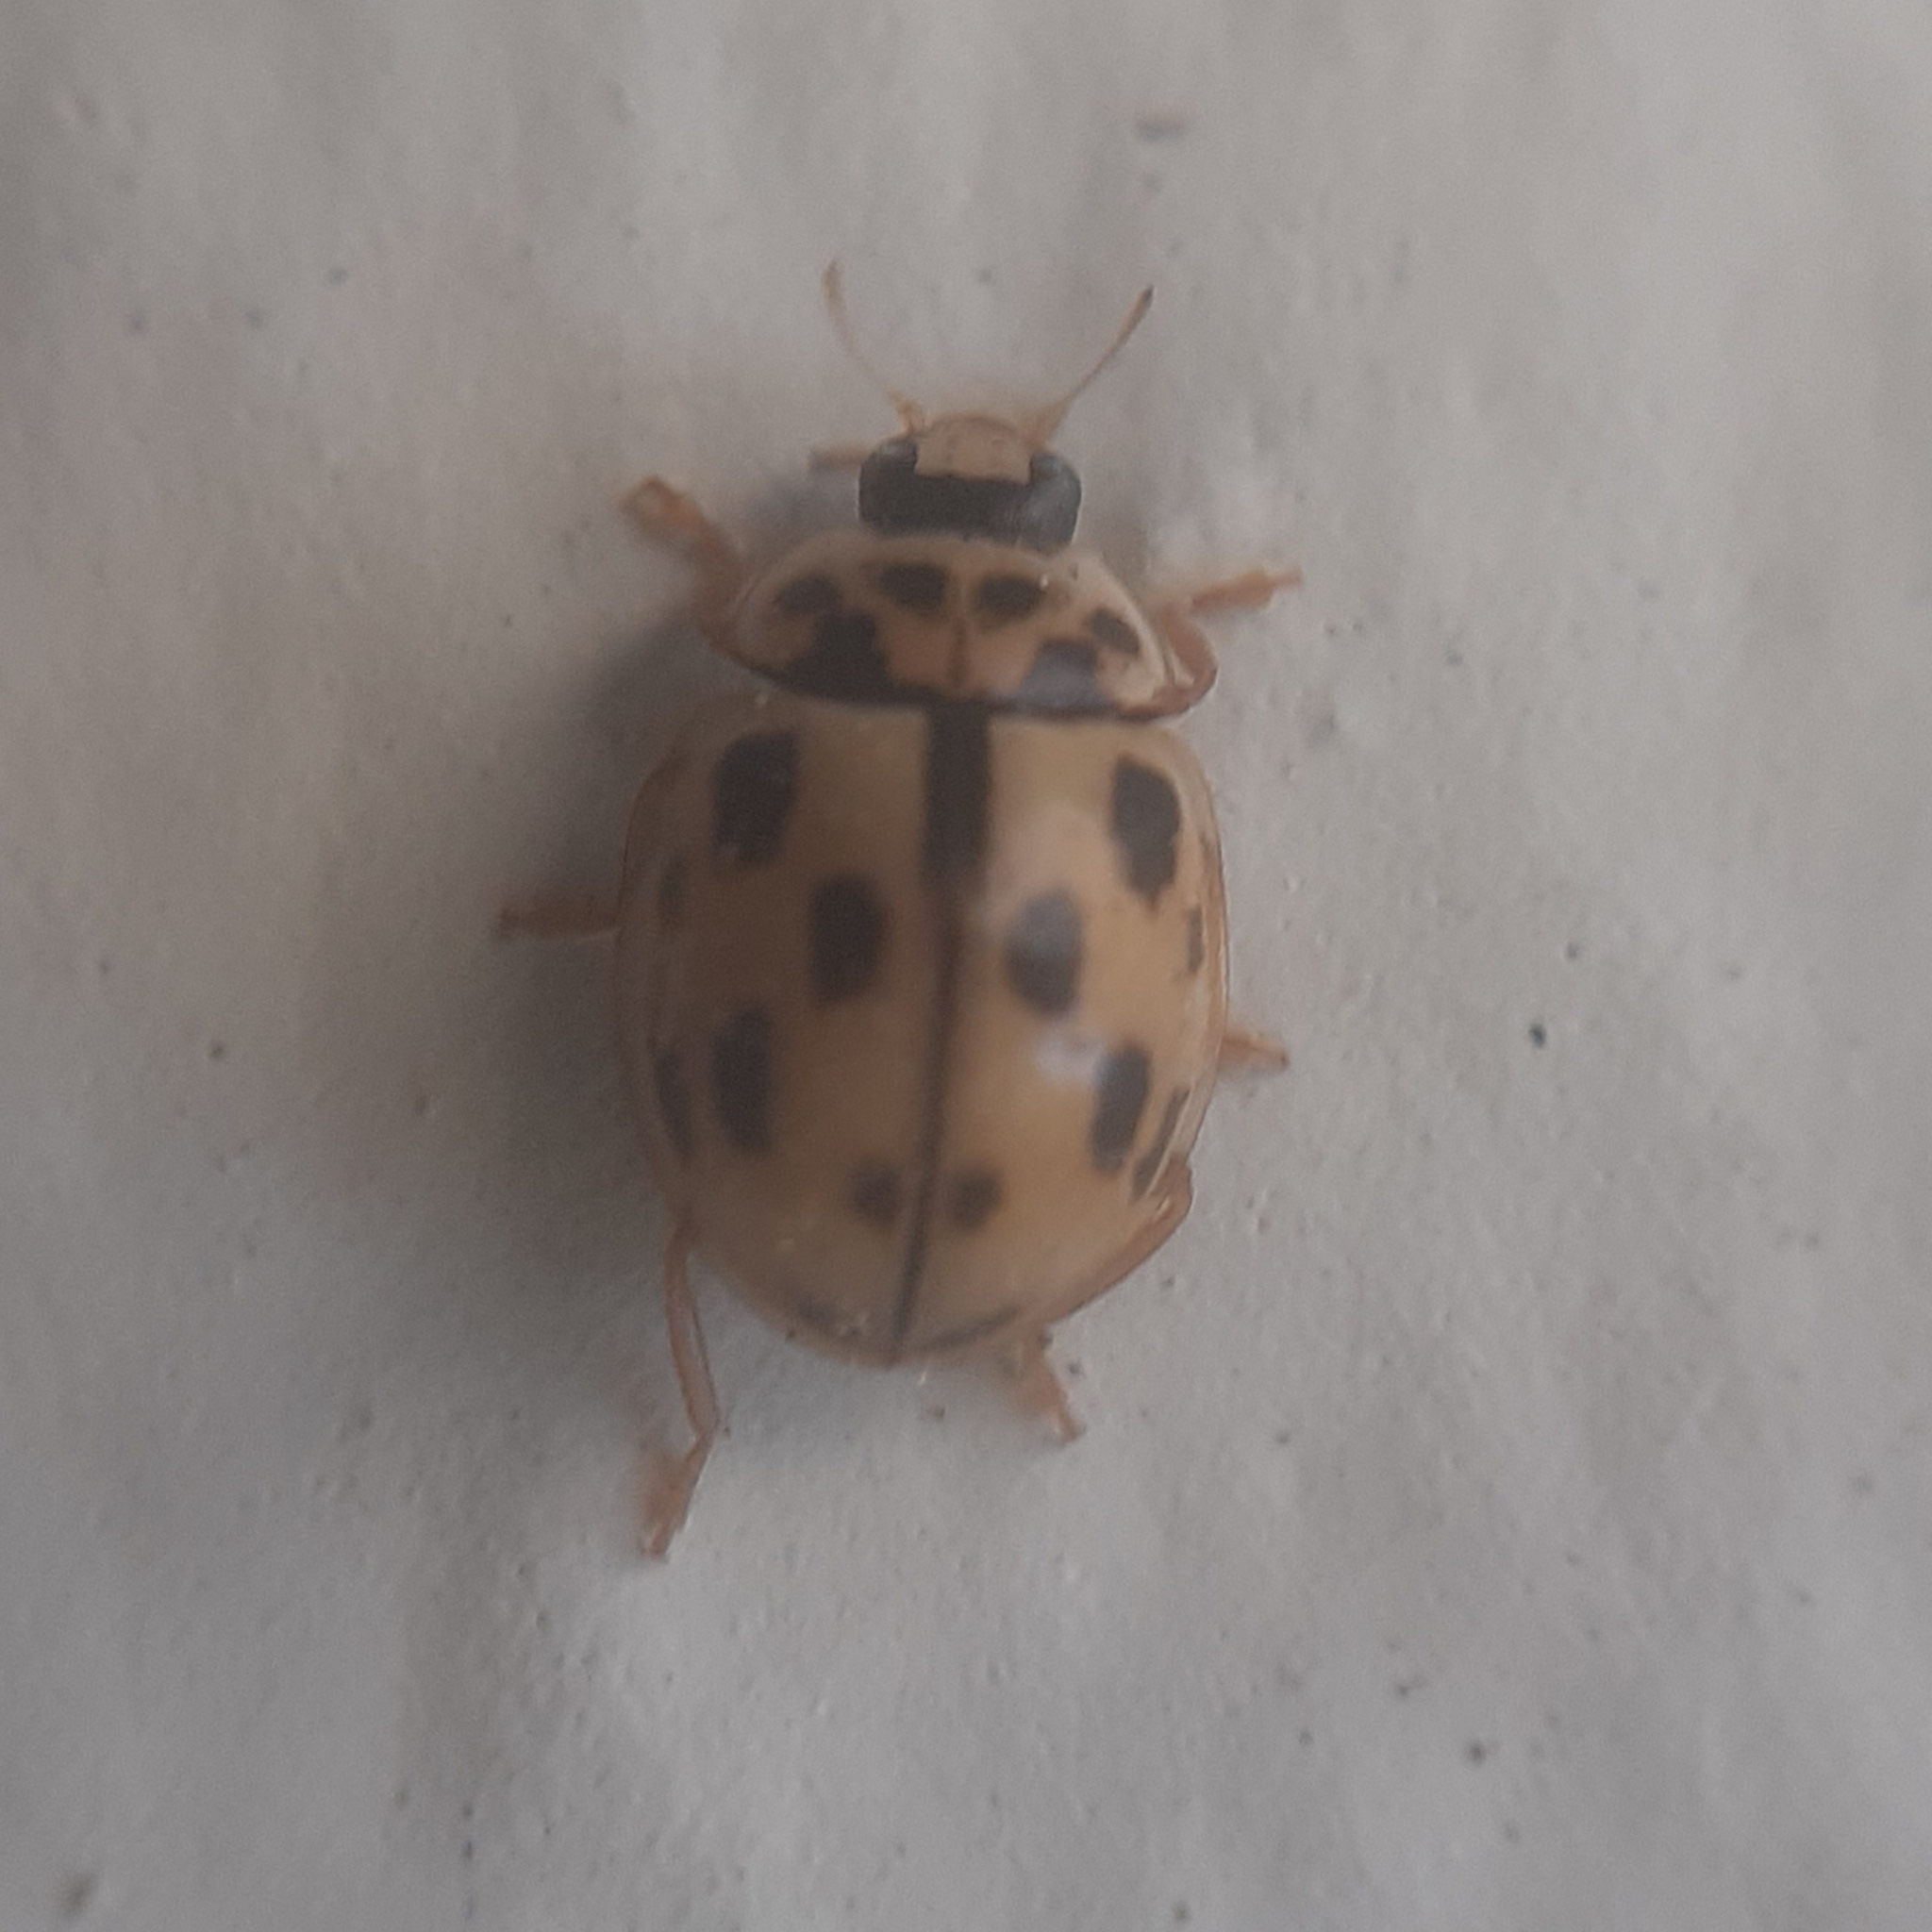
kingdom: Animalia
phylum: Arthropoda
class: Insecta
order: Coleoptera
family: Coccinellidae
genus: Propylaea
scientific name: Propylaea quatuordecimpunctata
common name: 14-spotted ladybird beetle
